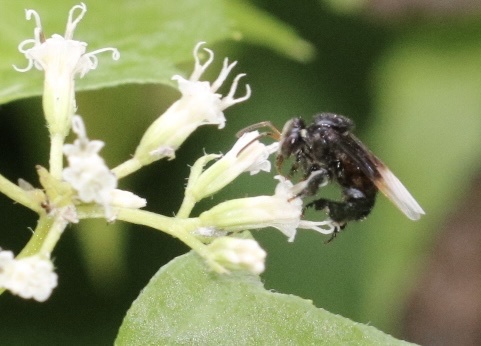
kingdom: Animalia
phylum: Arthropoda
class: Insecta
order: Hymenoptera
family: Apidae
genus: Tetragonula
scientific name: Tetragonula collina
